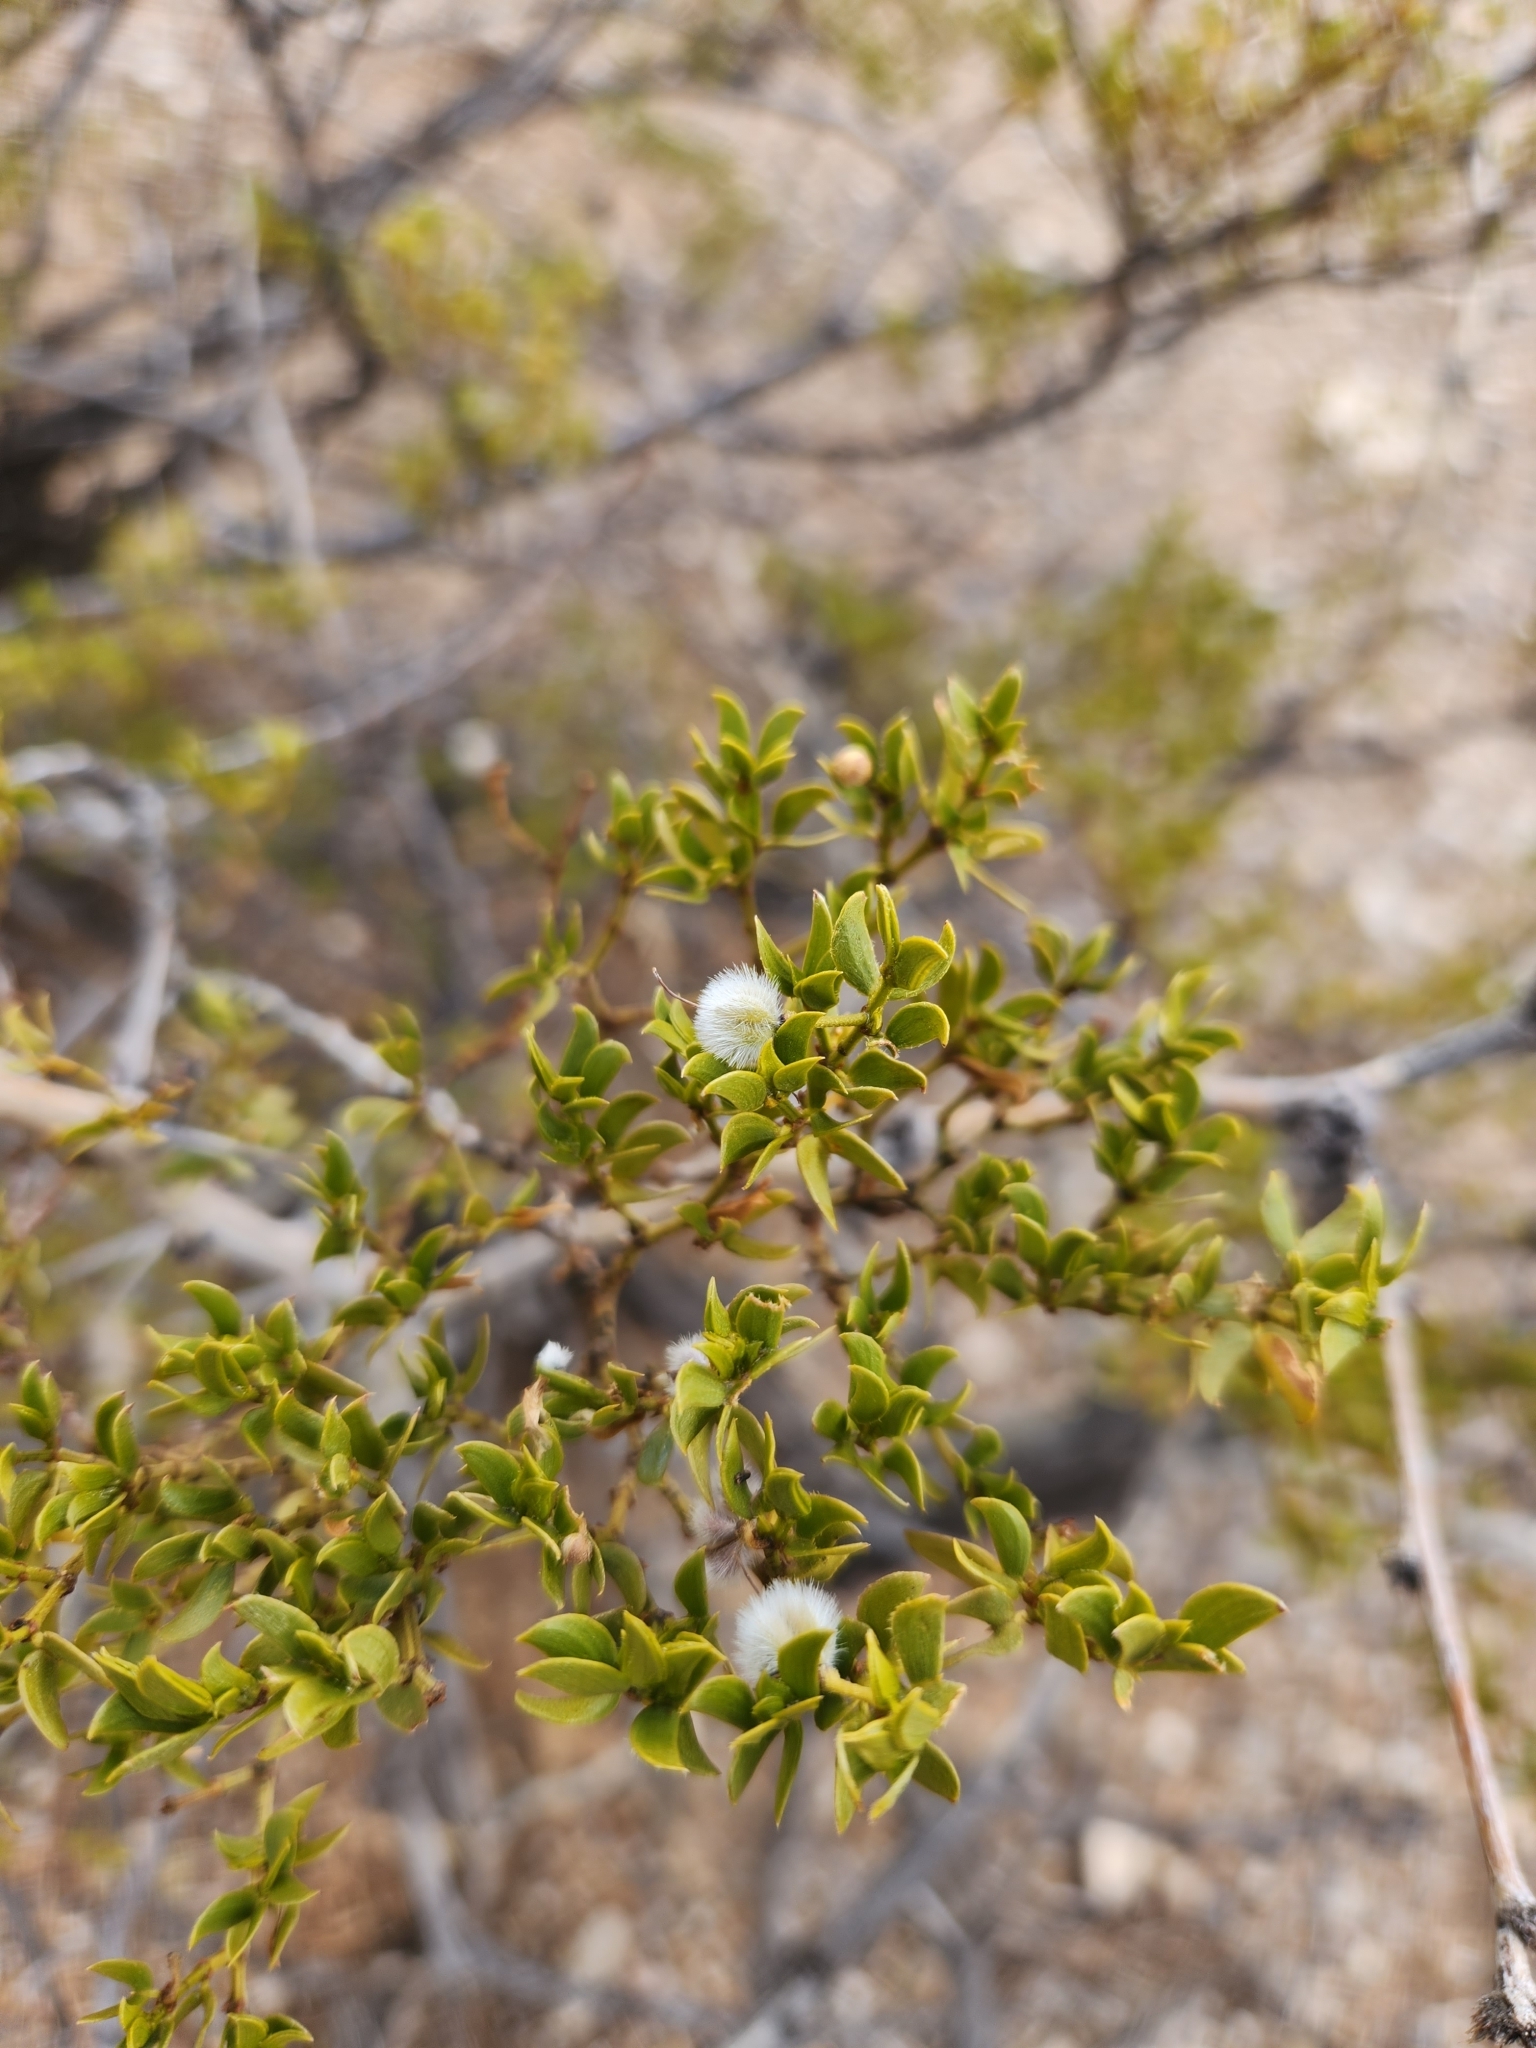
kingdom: Plantae
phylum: Tracheophyta
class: Magnoliopsida
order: Zygophyllales
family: Zygophyllaceae
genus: Larrea
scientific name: Larrea tridentata
